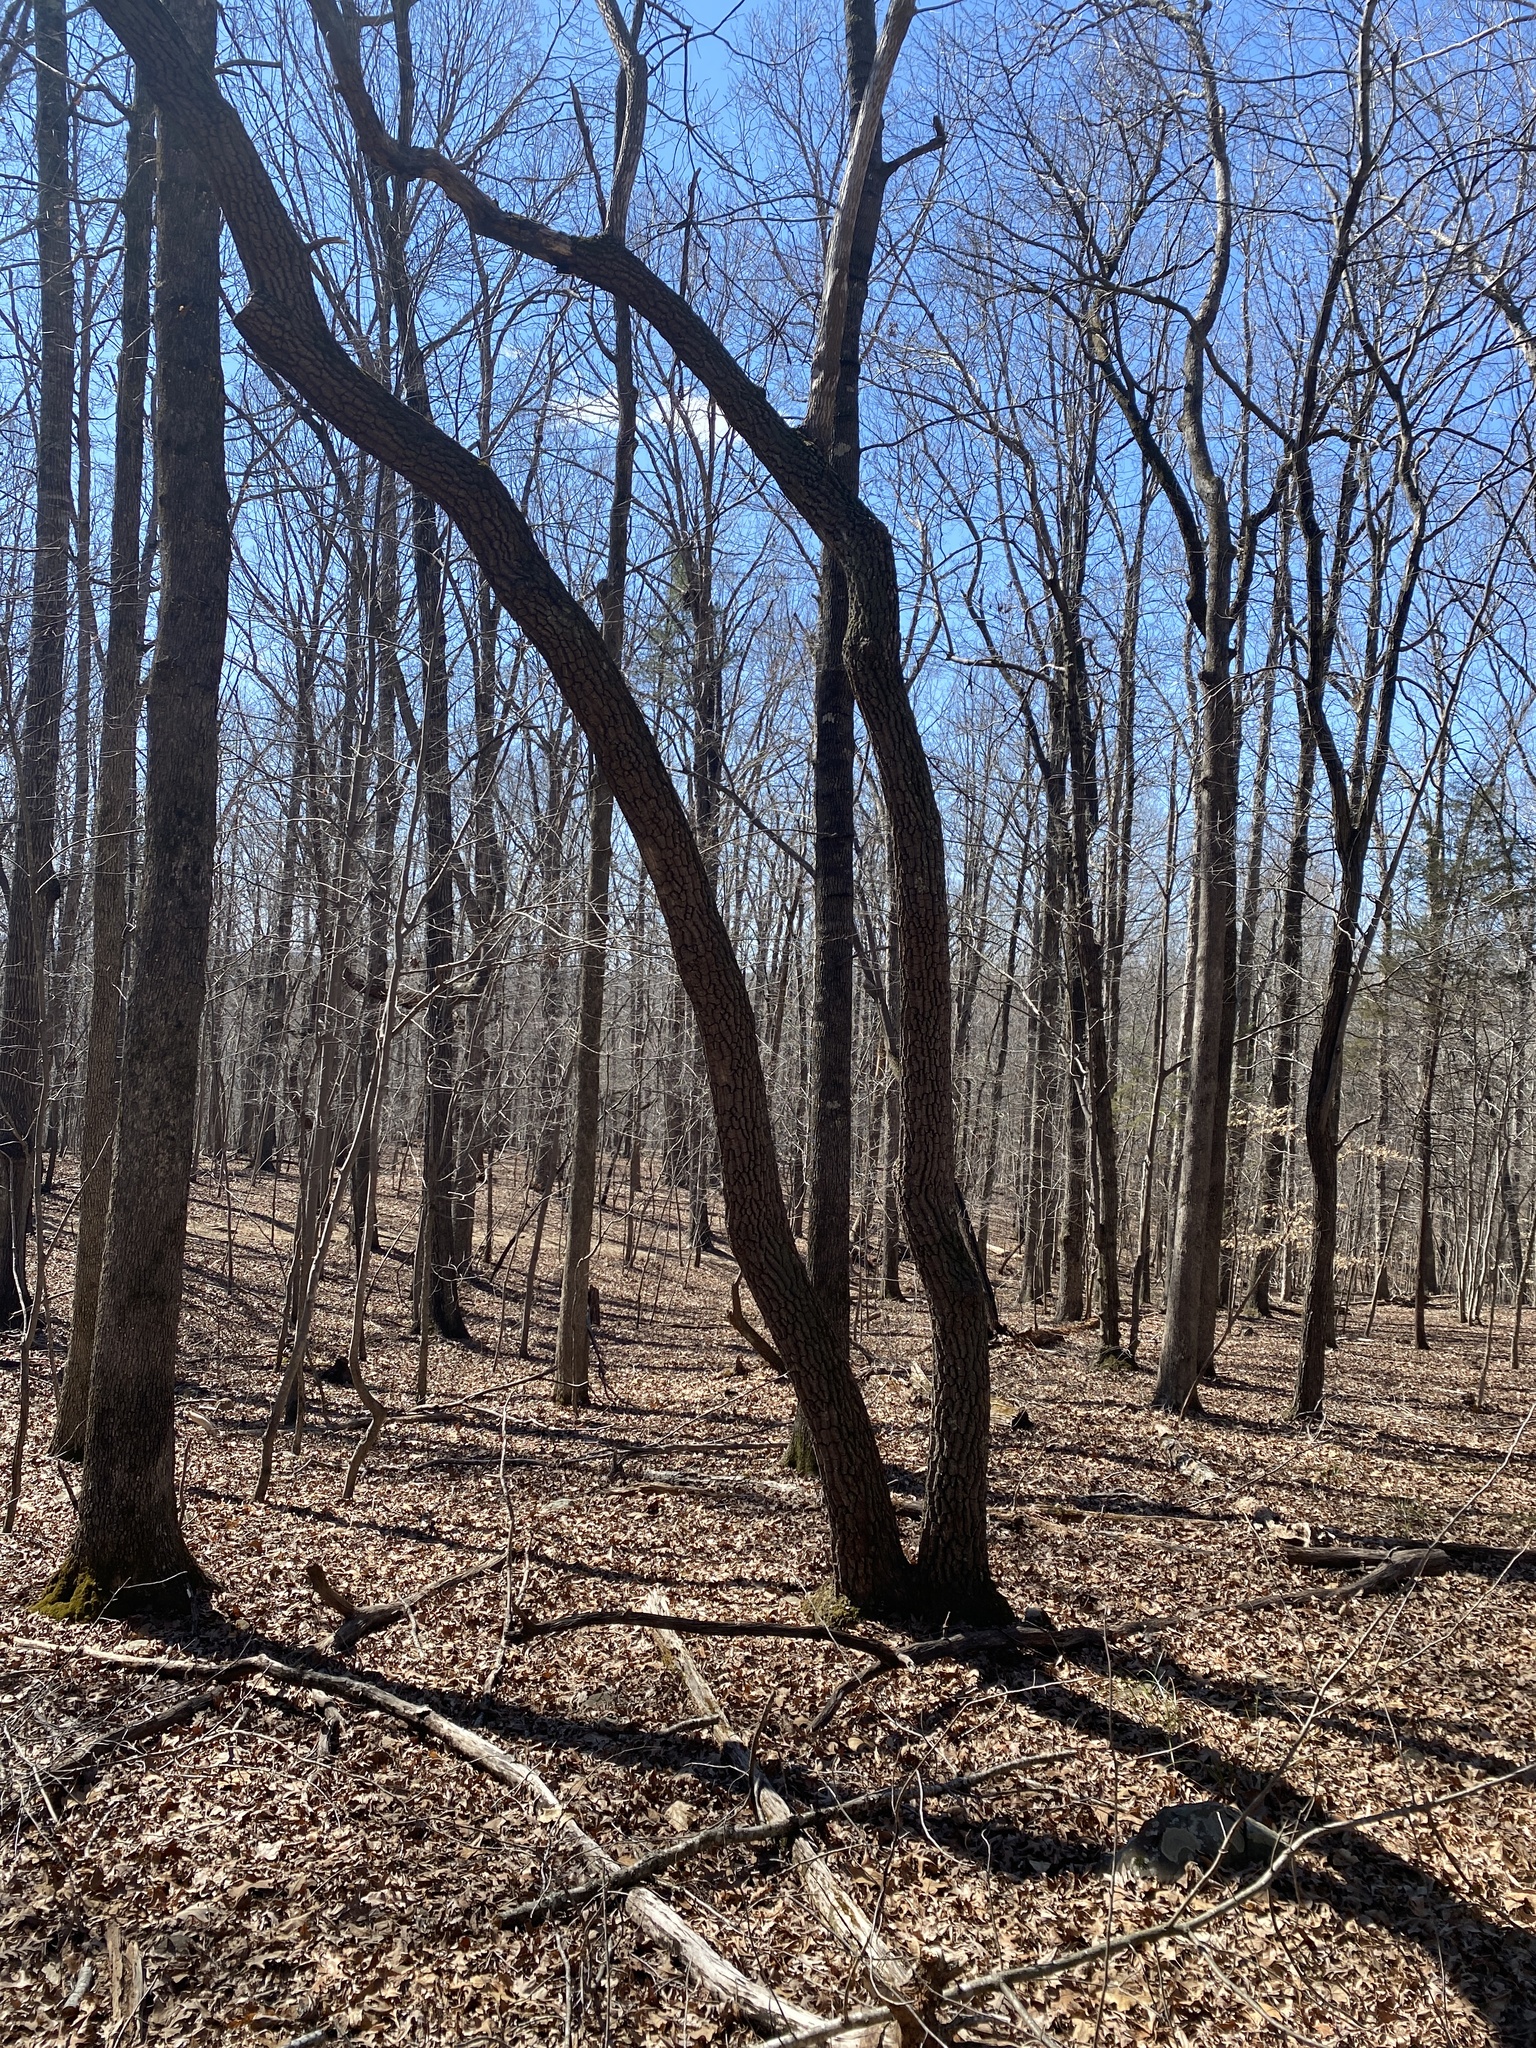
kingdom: Plantae
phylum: Tracheophyta
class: Magnoliopsida
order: Ericales
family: Ericaceae
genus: Oxydendrum
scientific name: Oxydendrum arboreum
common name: Sourwood
